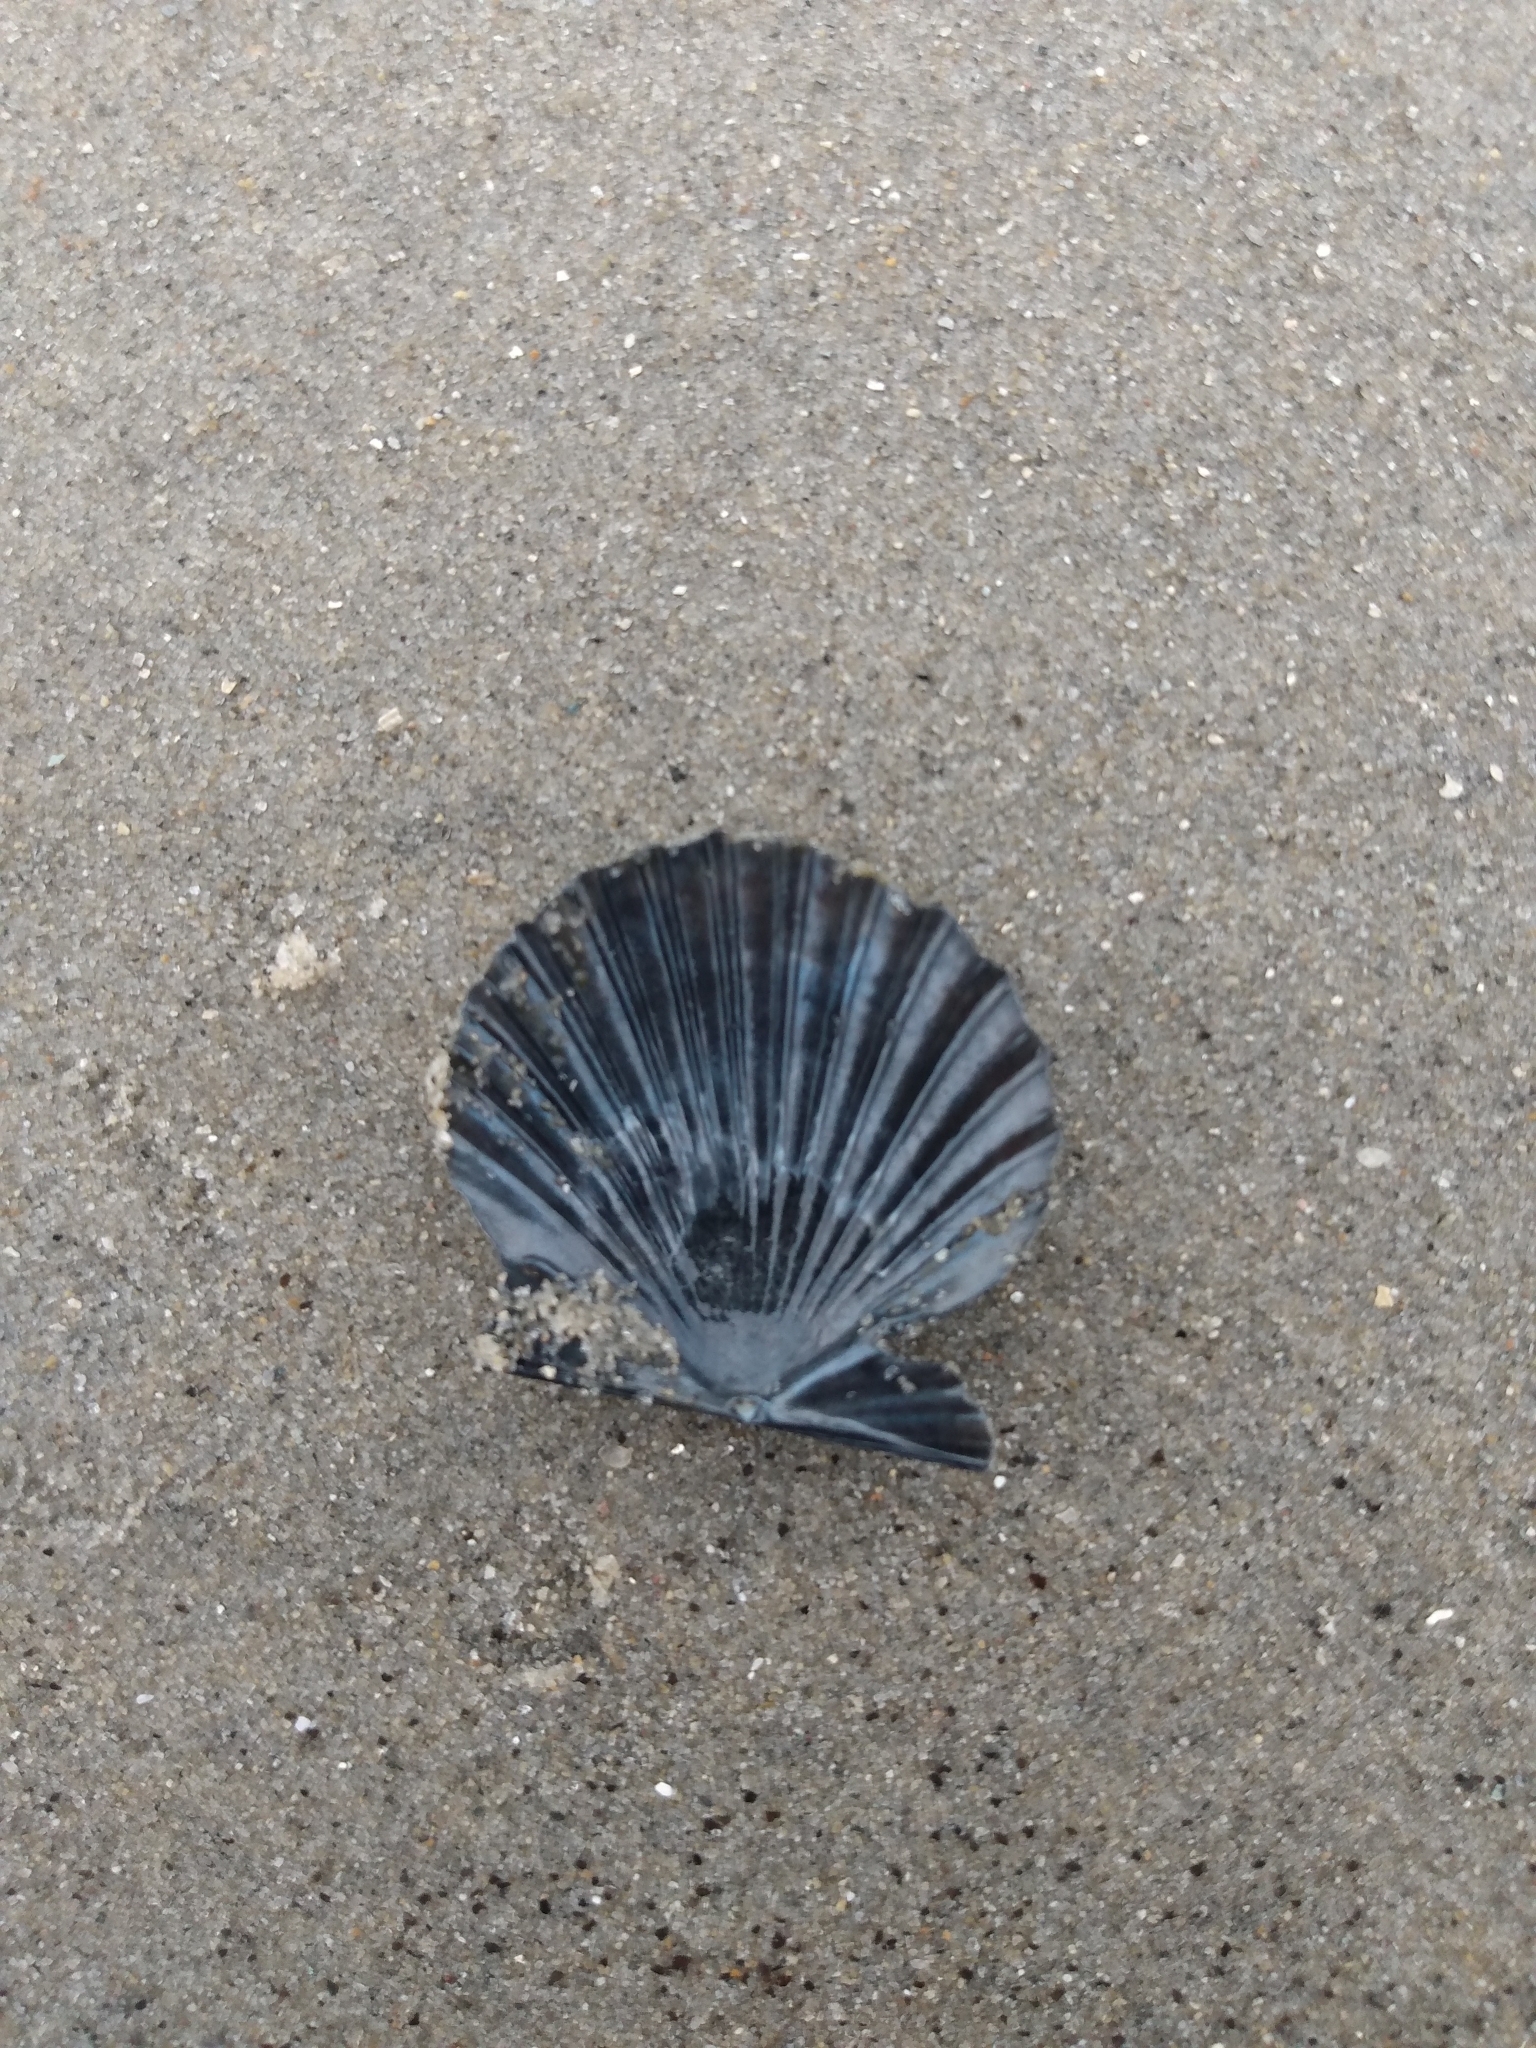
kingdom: Animalia
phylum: Mollusca
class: Bivalvia
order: Pectinida
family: Pectinidae
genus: Leptopecten
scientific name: Leptopecten latiauratus
